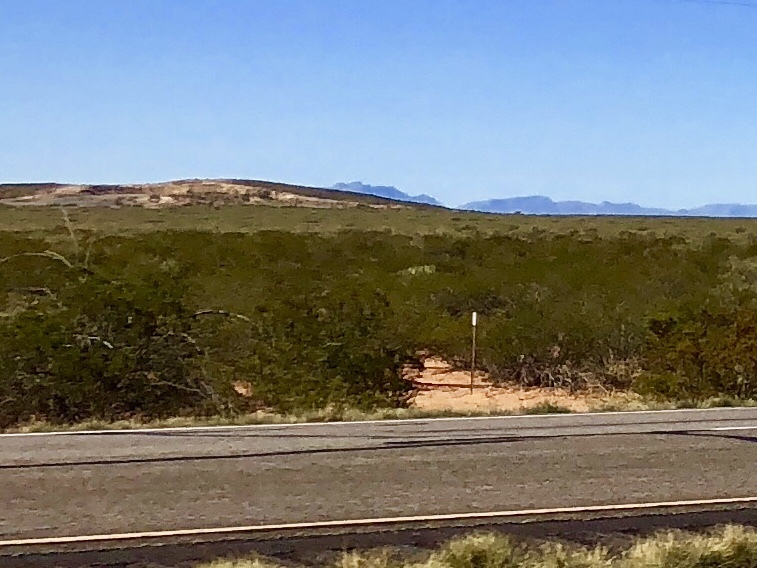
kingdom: Plantae
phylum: Tracheophyta
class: Magnoliopsida
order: Zygophyllales
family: Zygophyllaceae
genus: Larrea
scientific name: Larrea tridentata
